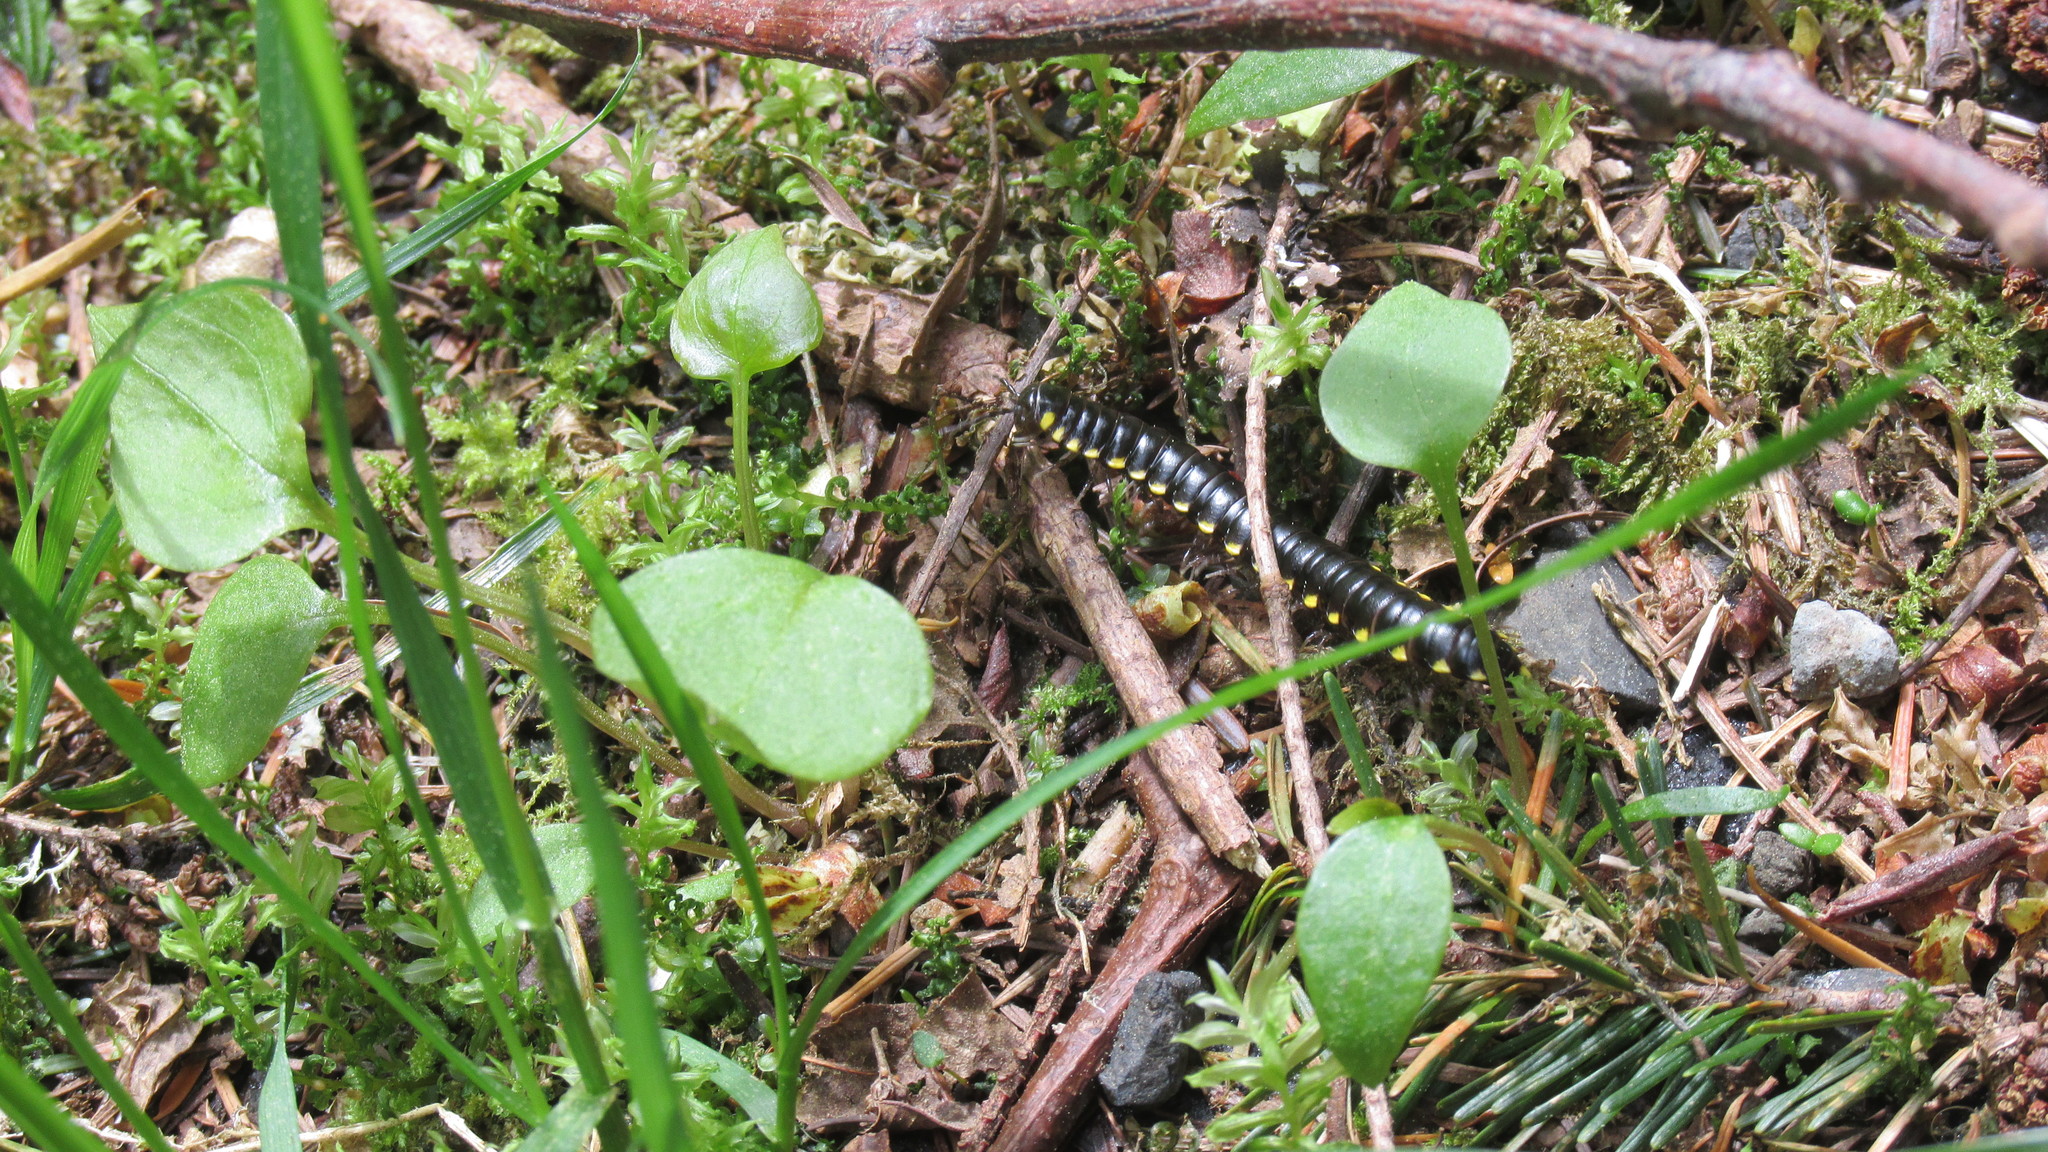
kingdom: Animalia
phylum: Arthropoda
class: Diplopoda
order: Polydesmida
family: Xystodesmidae
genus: Harpaphe
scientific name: Harpaphe haydeniana
